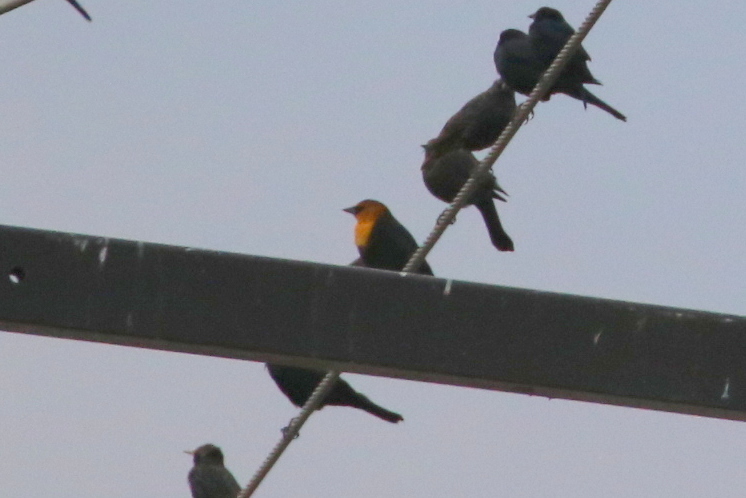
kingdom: Animalia
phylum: Chordata
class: Aves
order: Passeriformes
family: Icteridae
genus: Xanthocephalus
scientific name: Xanthocephalus xanthocephalus
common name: Yellow-headed blackbird
